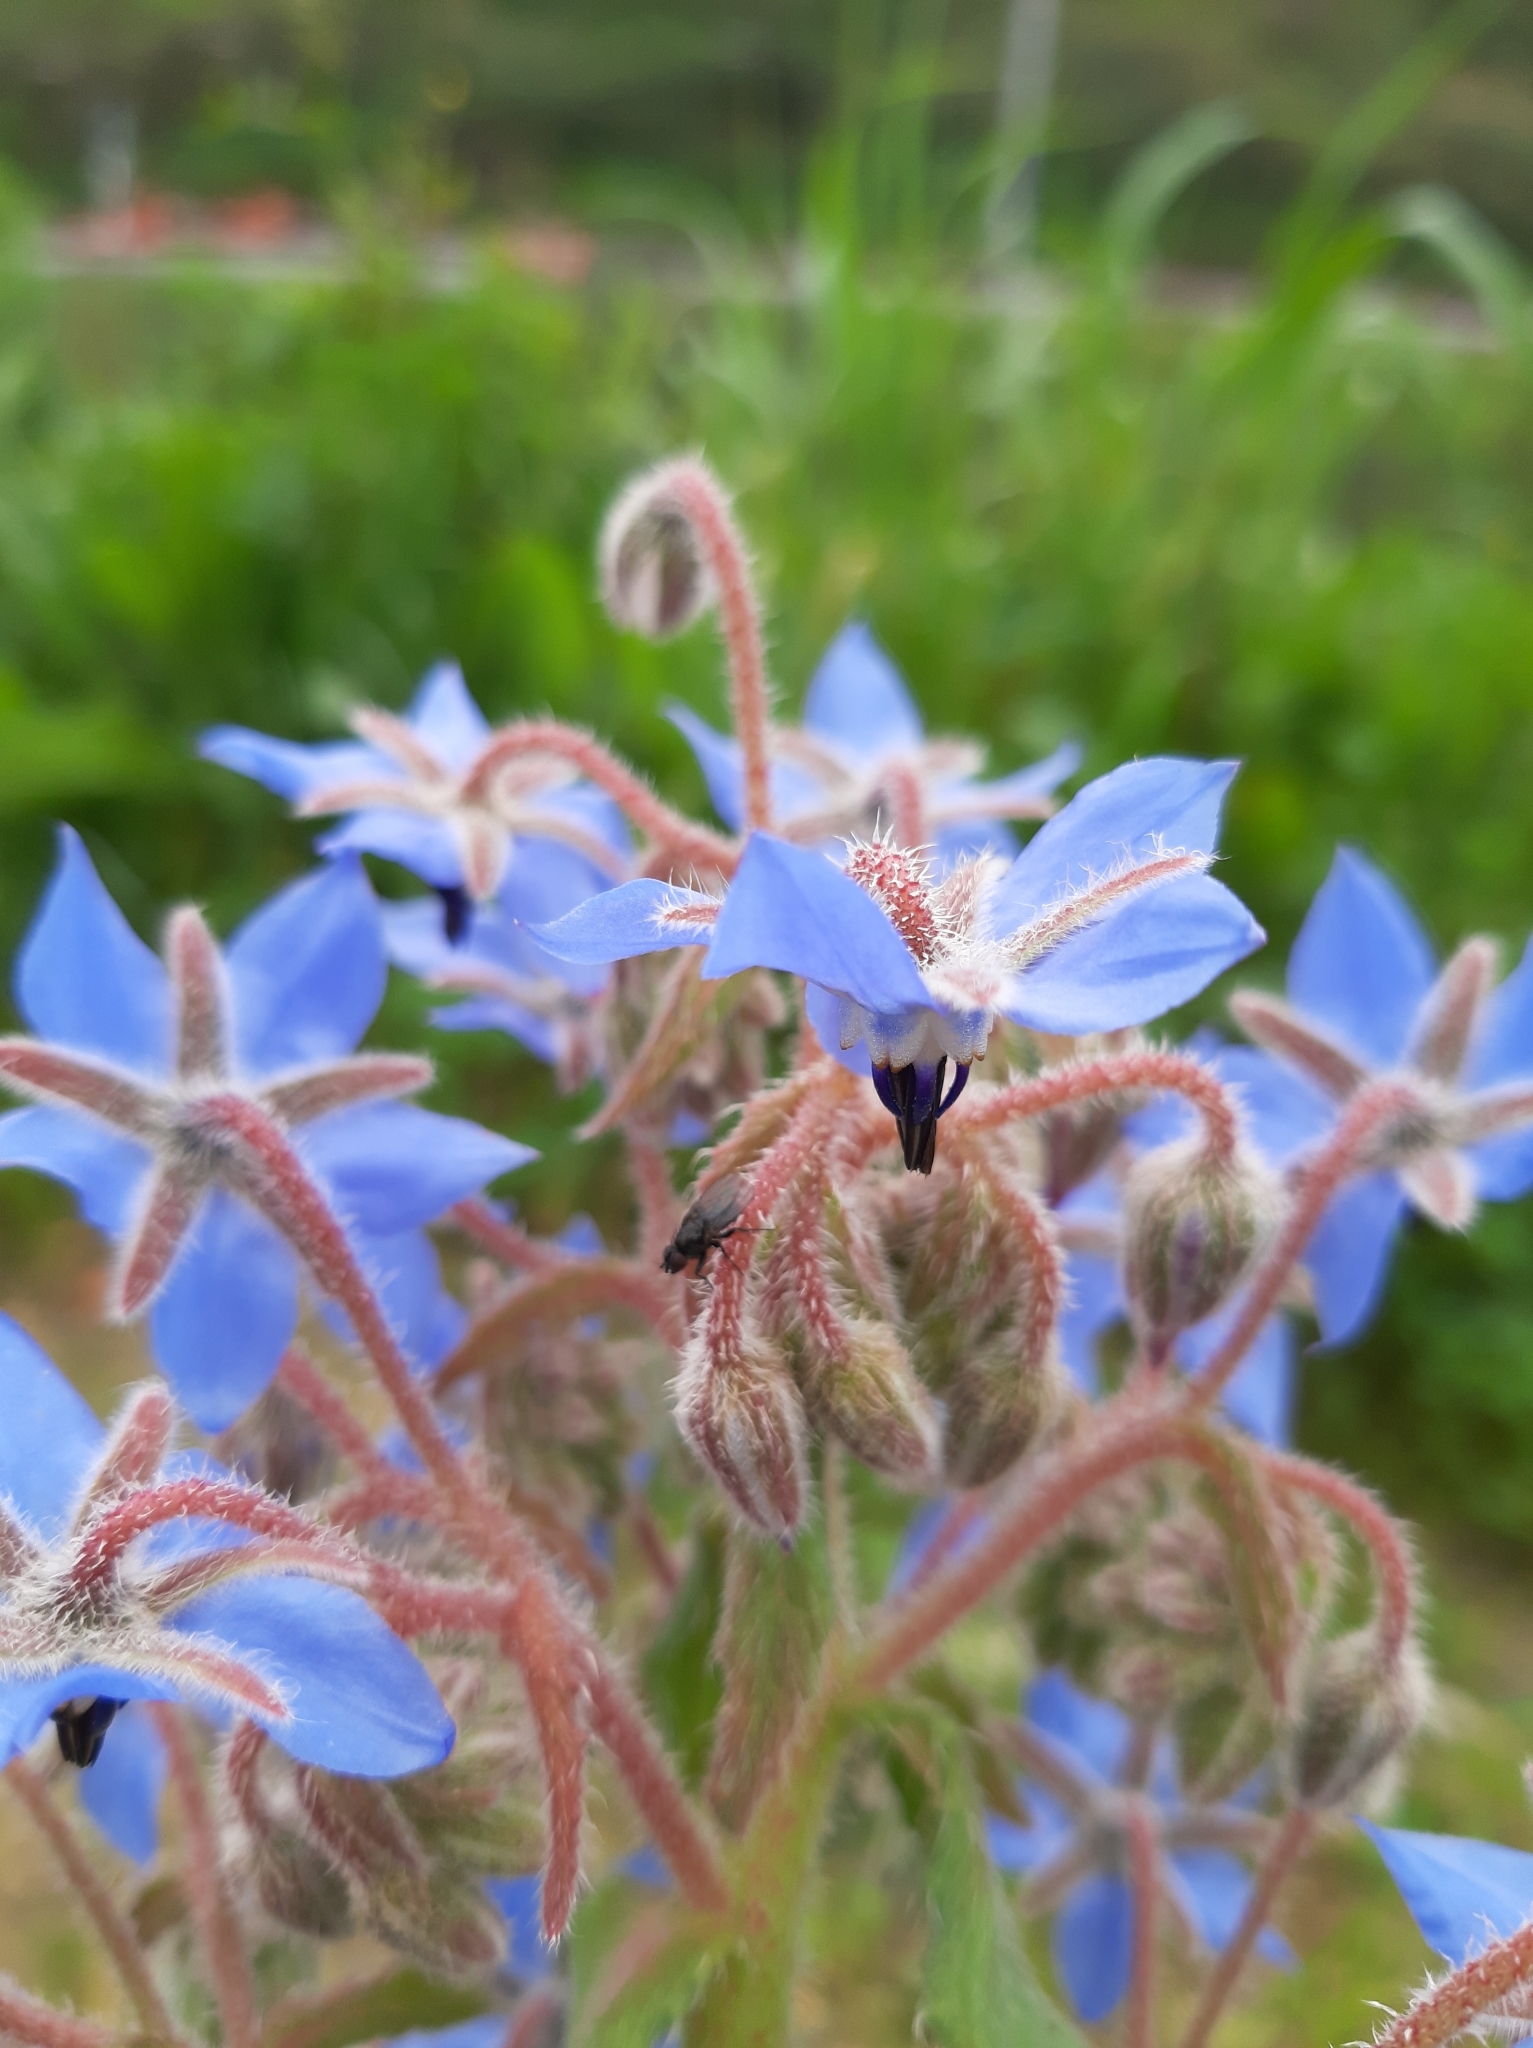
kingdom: Plantae
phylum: Tracheophyta
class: Magnoliopsida
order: Boraginales
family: Boraginaceae
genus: Borago
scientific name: Borago officinalis
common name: Borage
